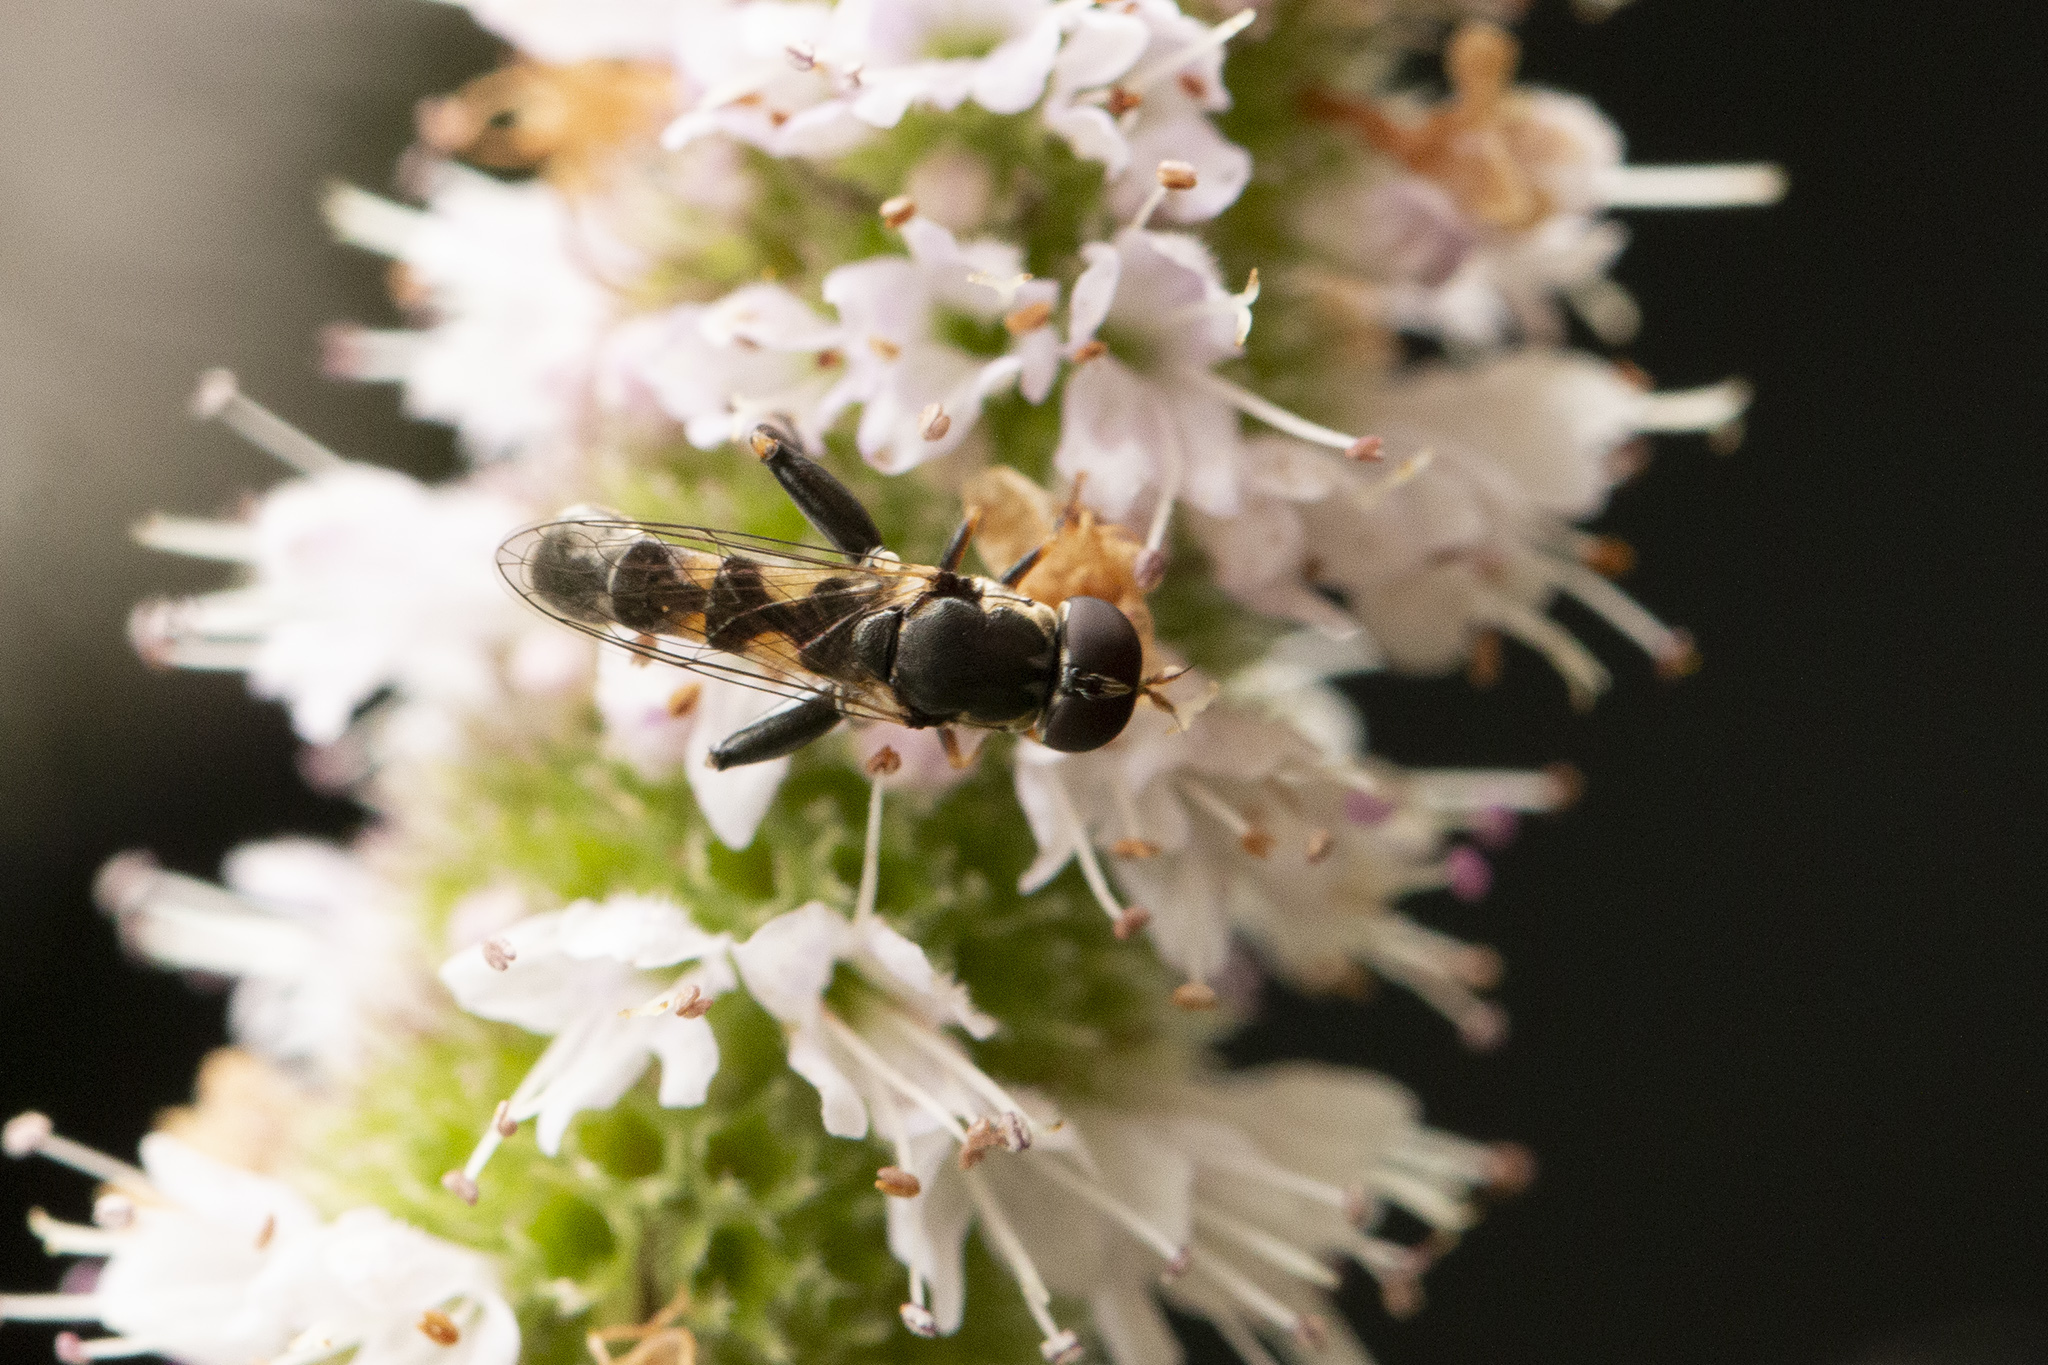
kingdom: Animalia
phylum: Arthropoda
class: Insecta
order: Diptera
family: Syrphidae
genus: Syritta
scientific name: Syritta pipiens
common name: Hover fly
